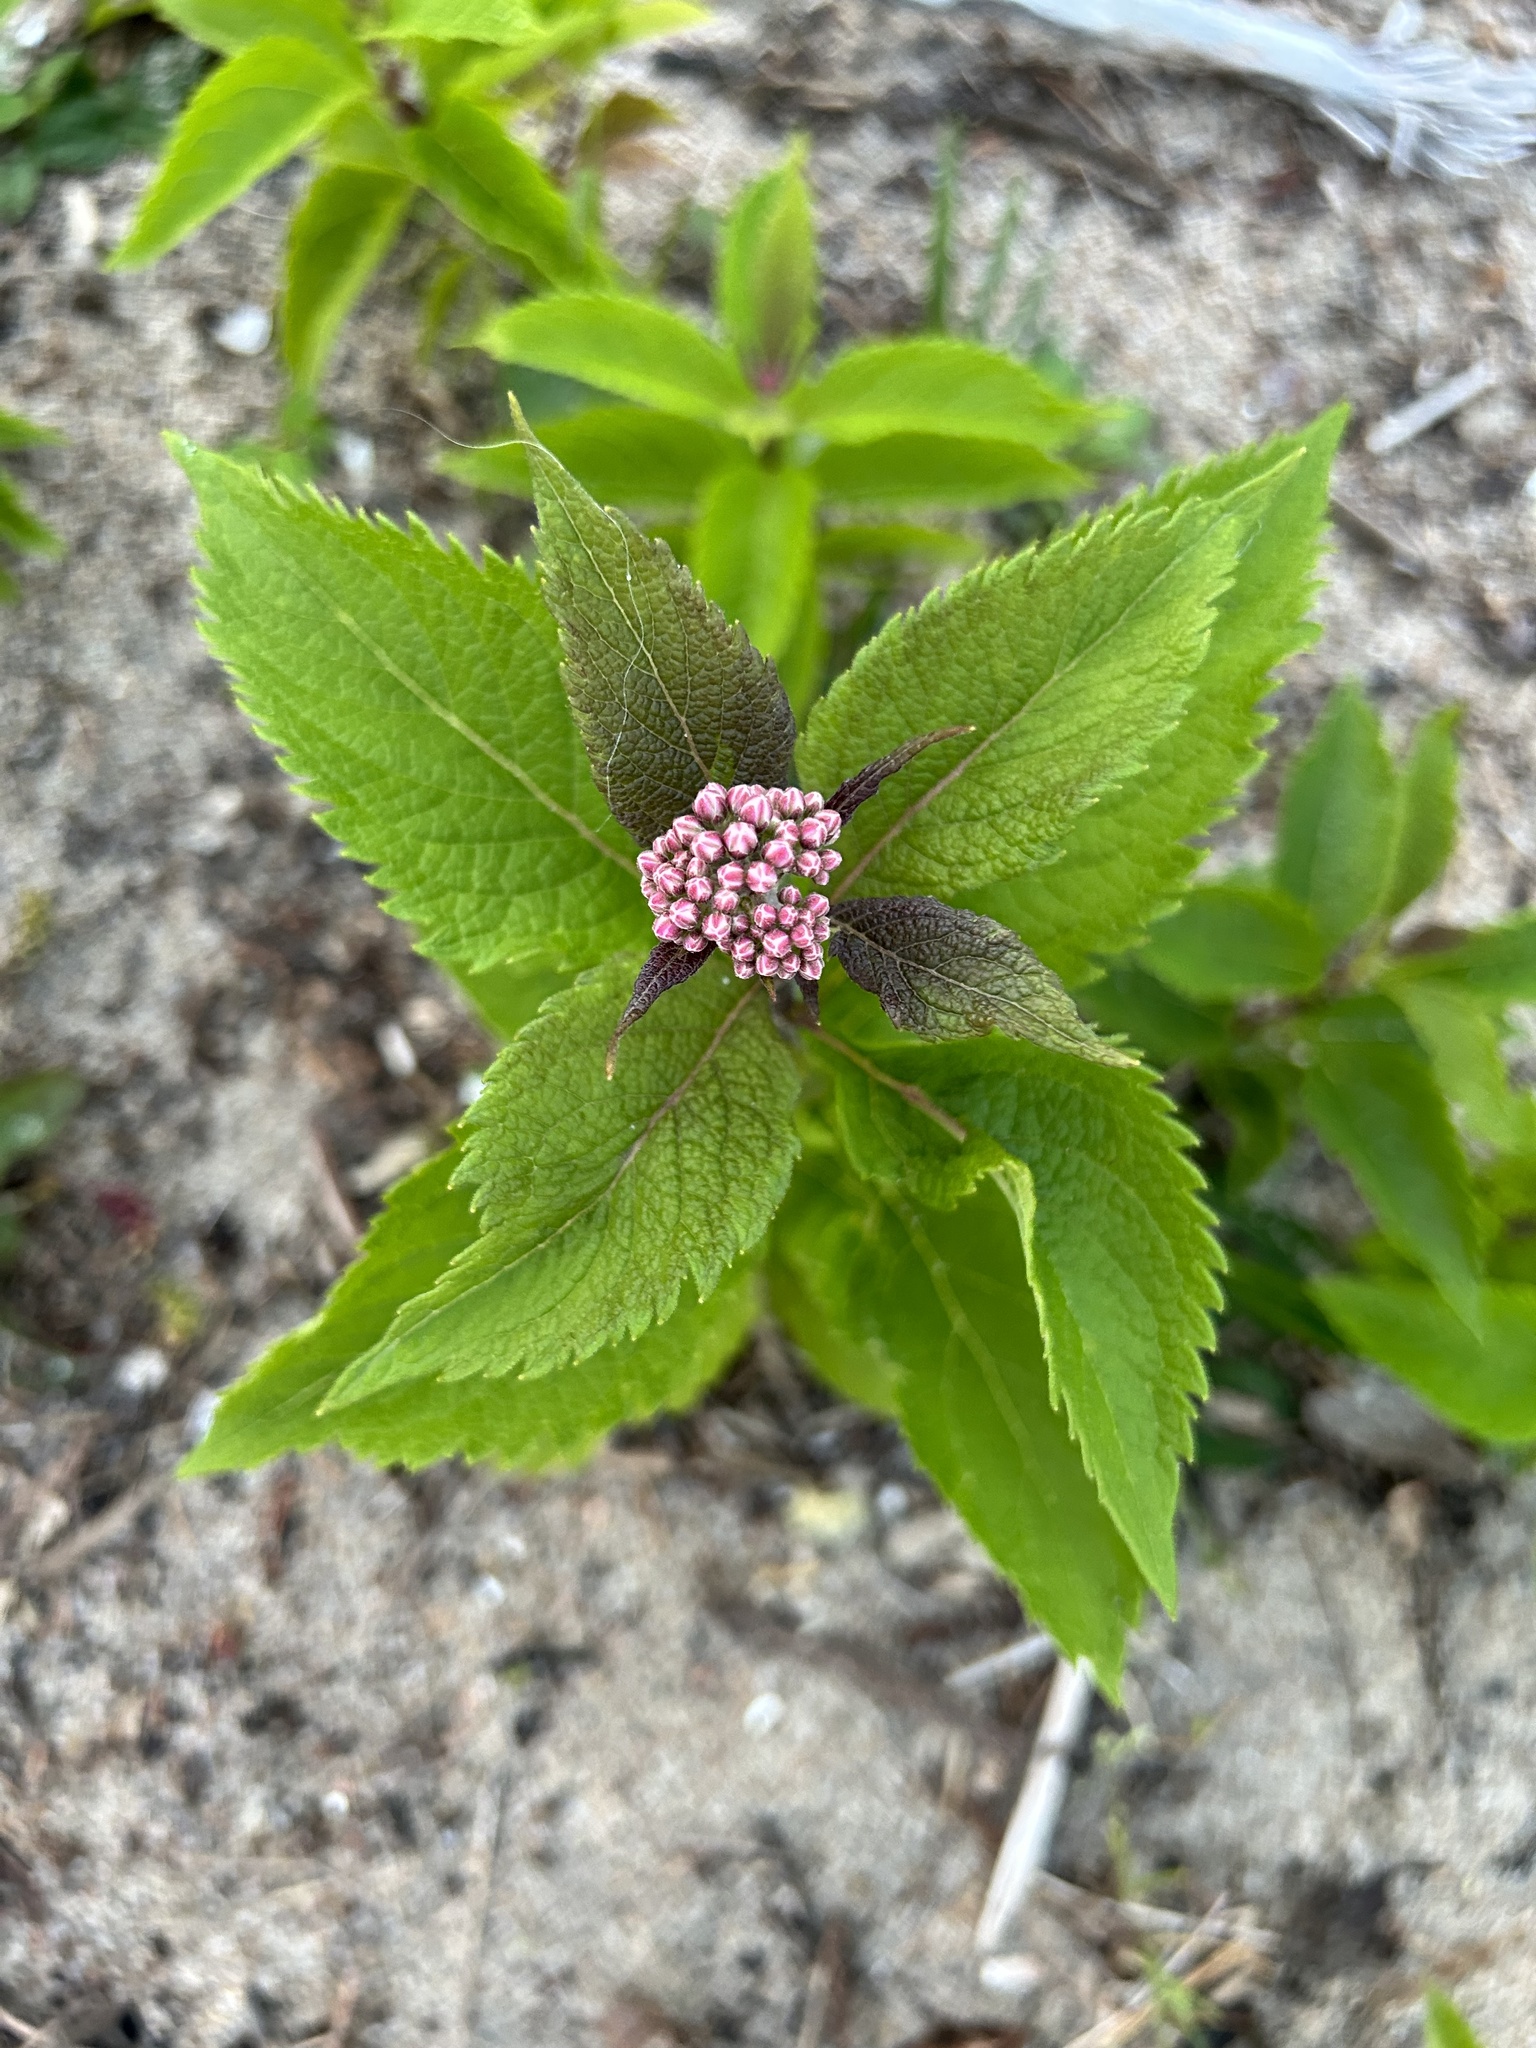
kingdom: Plantae
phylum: Tracheophyta
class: Magnoliopsida
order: Asterales
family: Asteraceae
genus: Eutrochium
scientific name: Eutrochium maculatum
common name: Spotted joe pye weed
